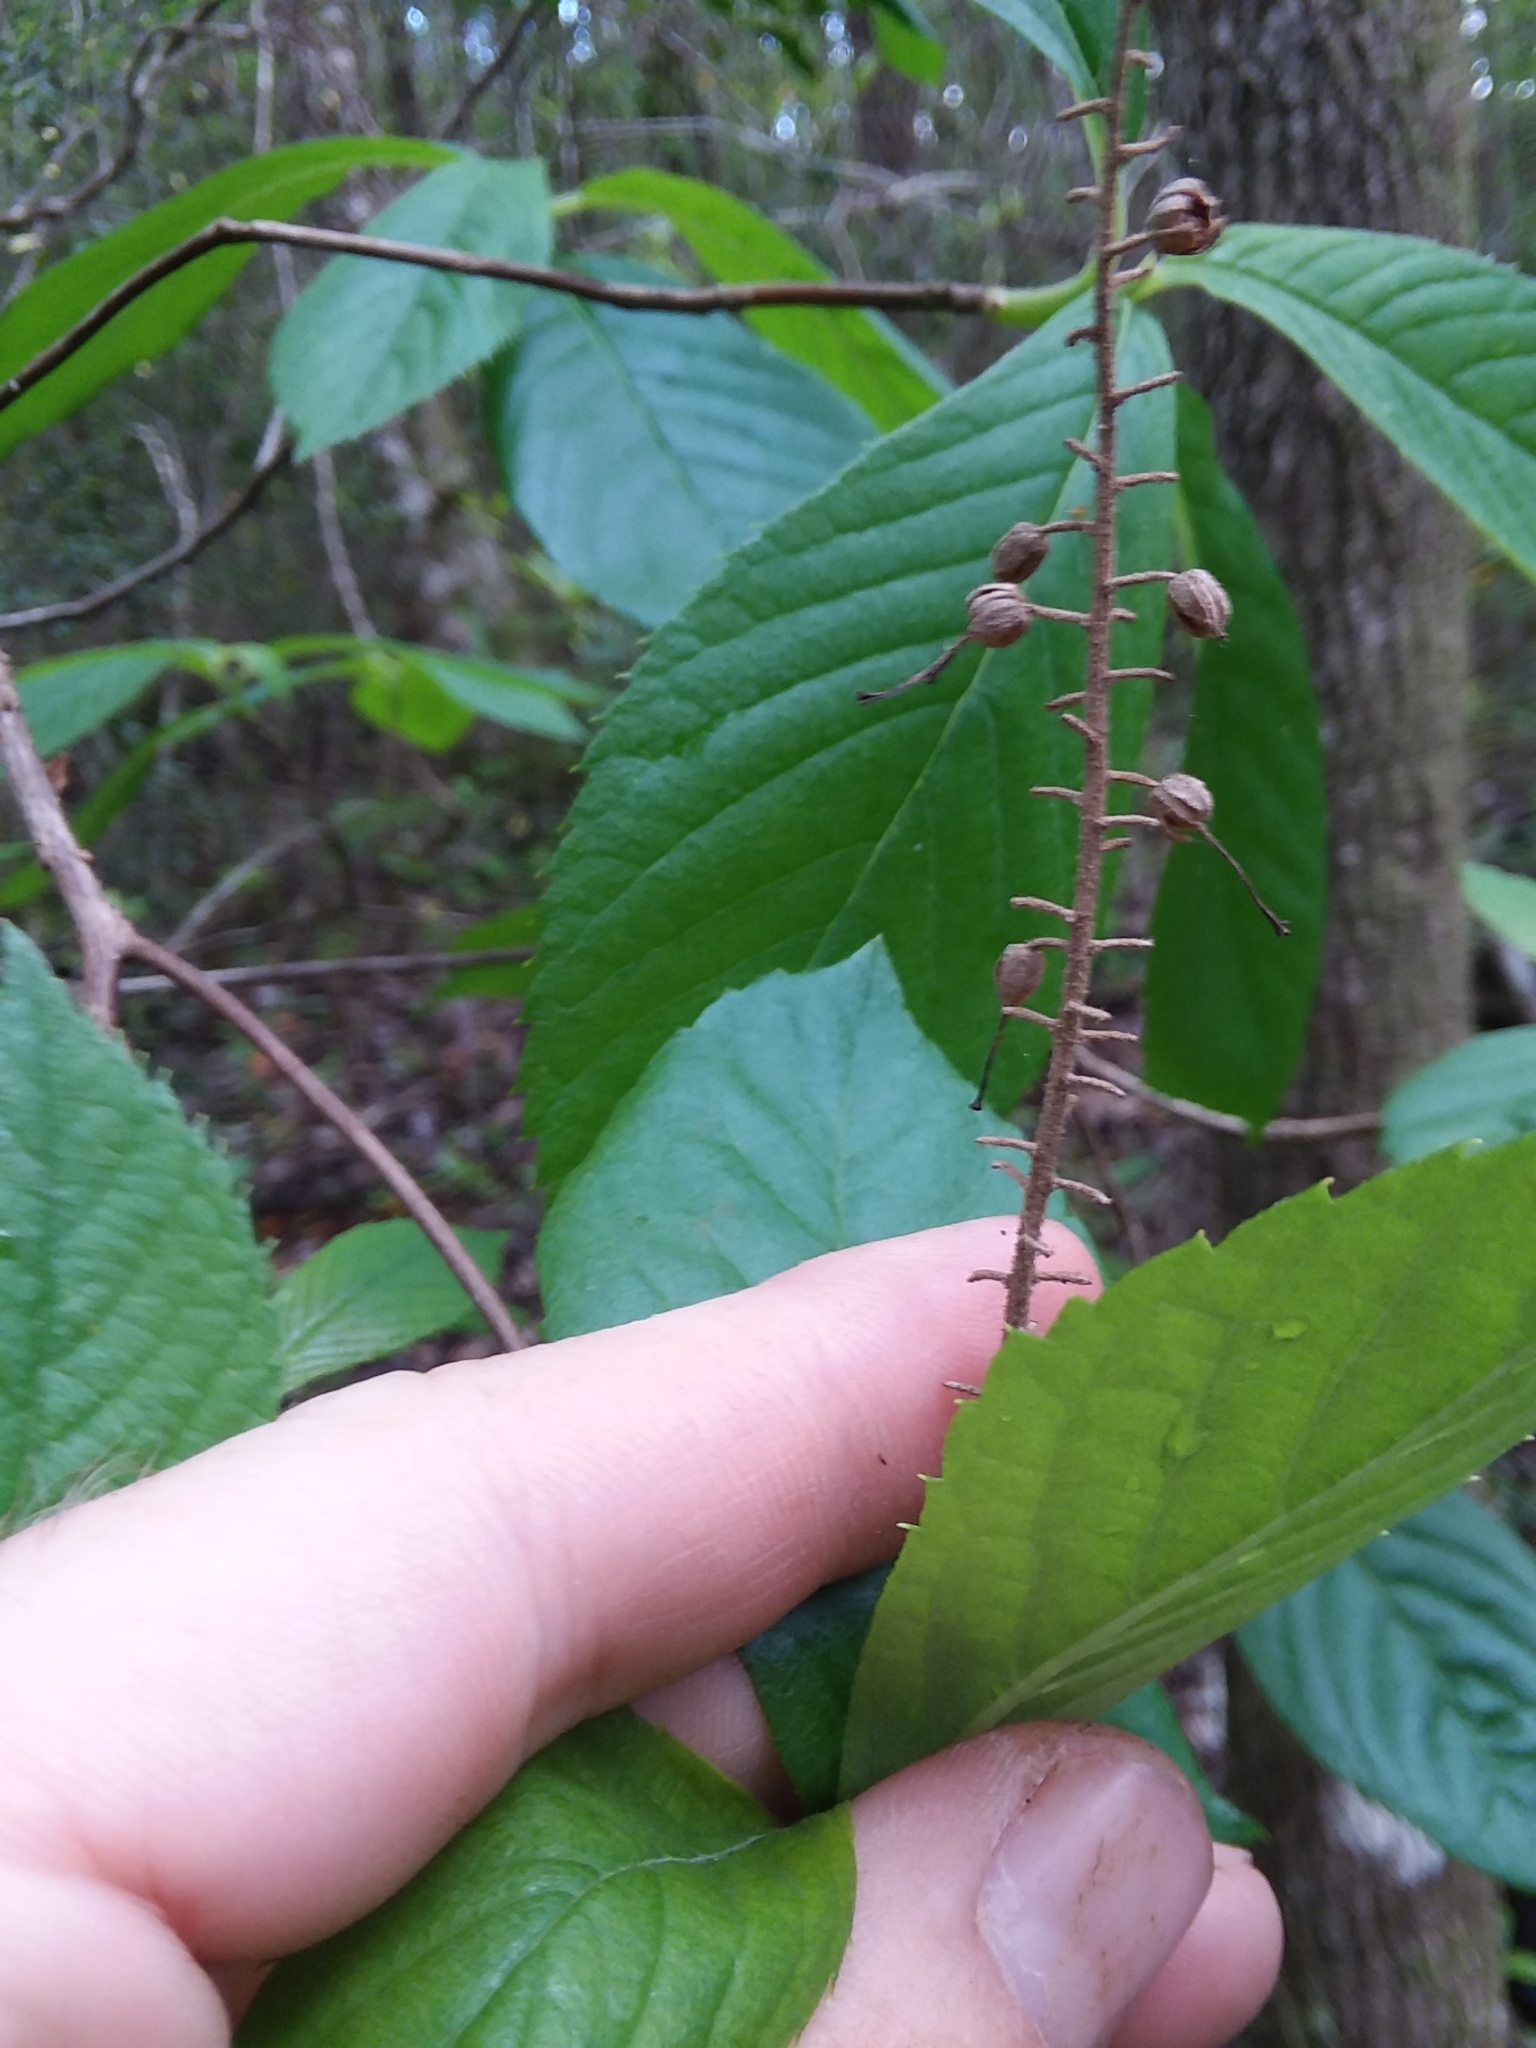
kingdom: Plantae
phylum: Tracheophyta
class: Magnoliopsida
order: Ericales
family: Clethraceae
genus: Clethra
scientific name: Clethra tomentosa
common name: Downy sweet pepperbush
